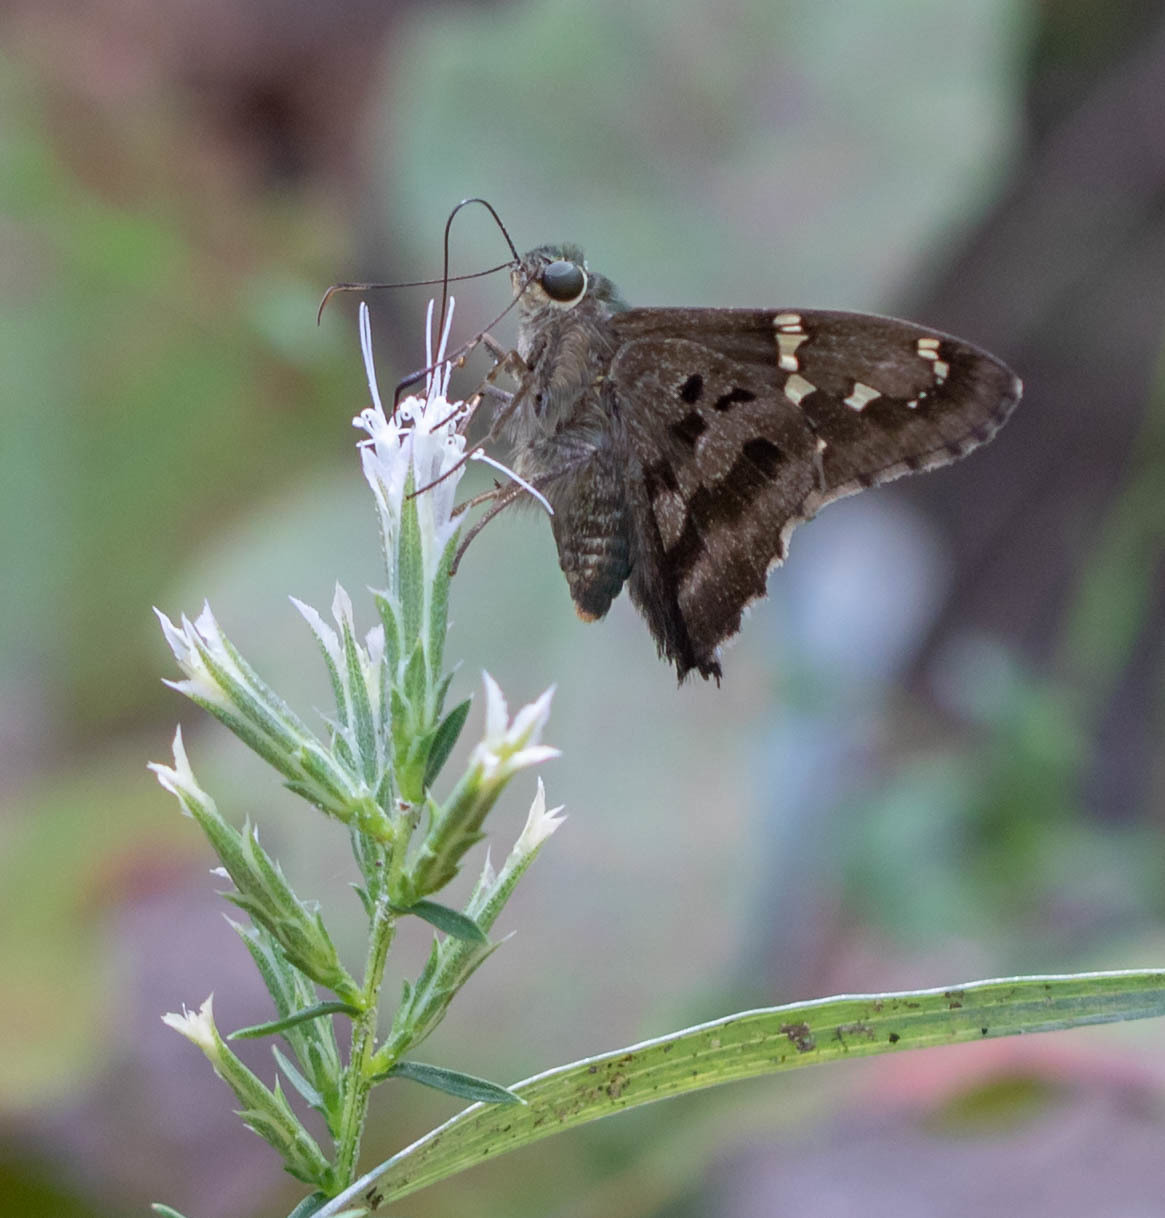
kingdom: Animalia
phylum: Arthropoda
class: Insecta
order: Lepidoptera
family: Hesperiidae
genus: Urbanus
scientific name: Urbanus proteus
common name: Long-tailed skipper
